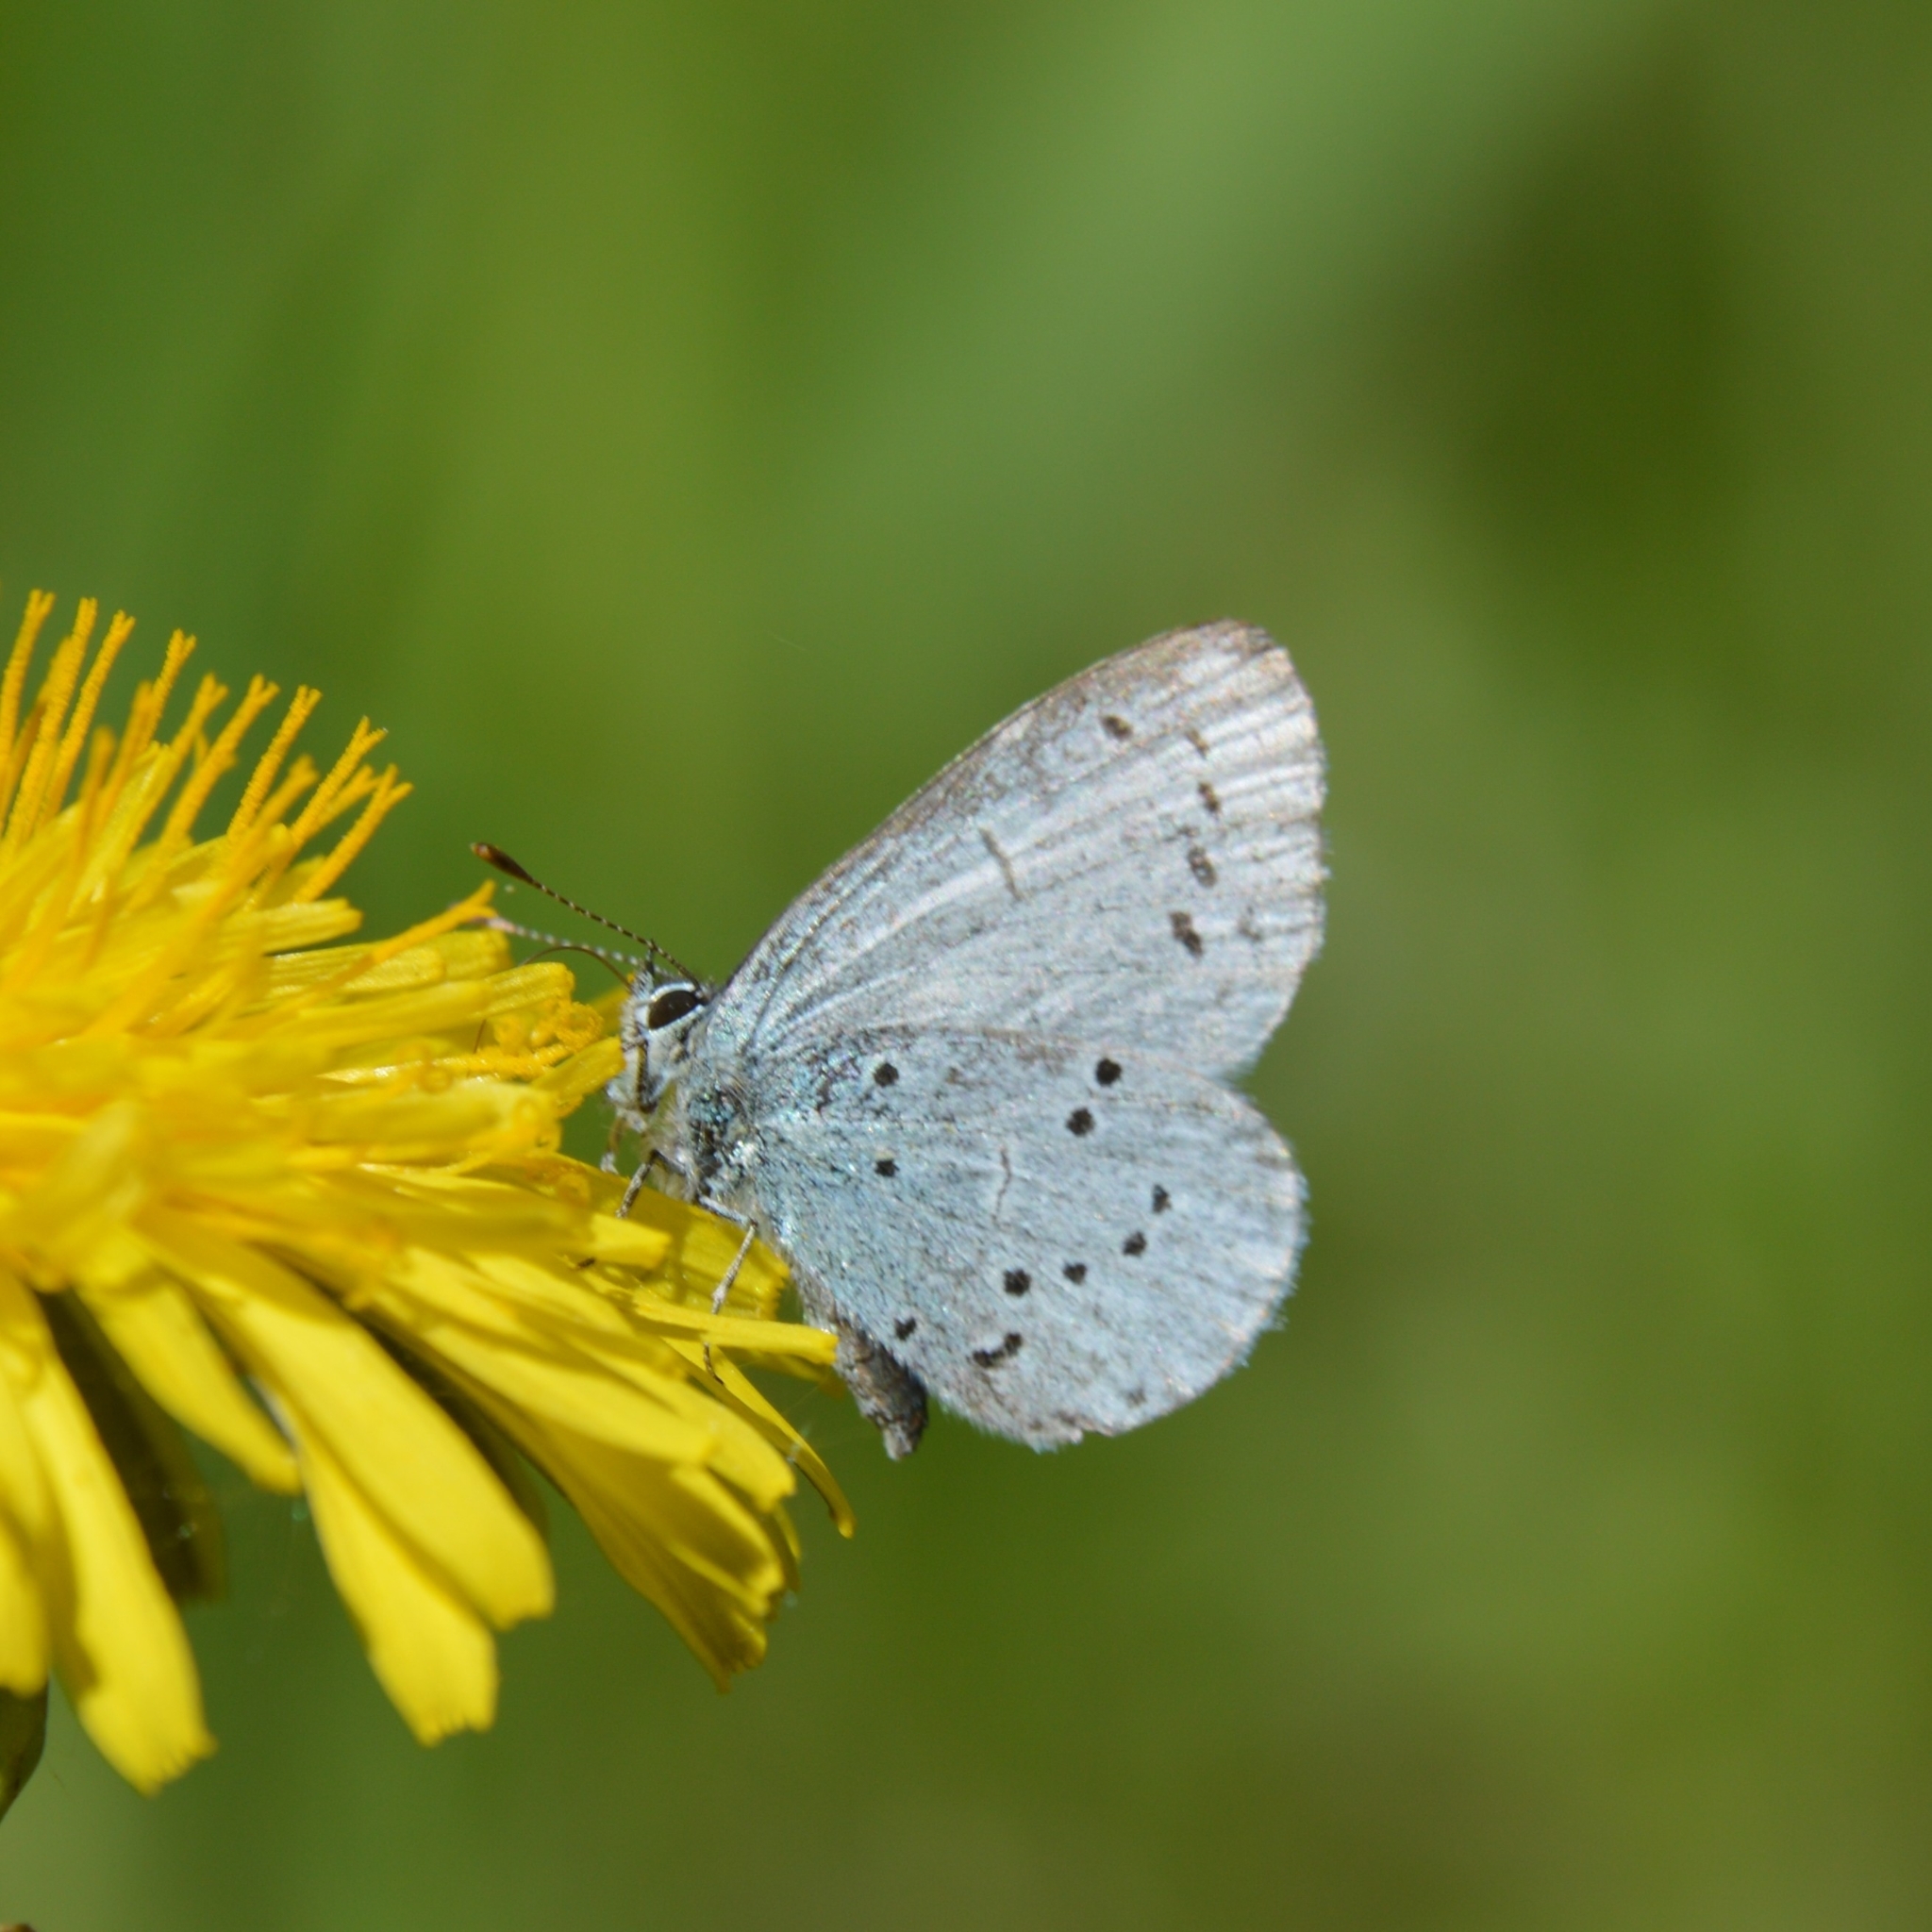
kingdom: Animalia
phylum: Arthropoda
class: Insecta
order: Lepidoptera
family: Lycaenidae
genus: Celastrina
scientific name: Celastrina argiolus
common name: Holly blue
